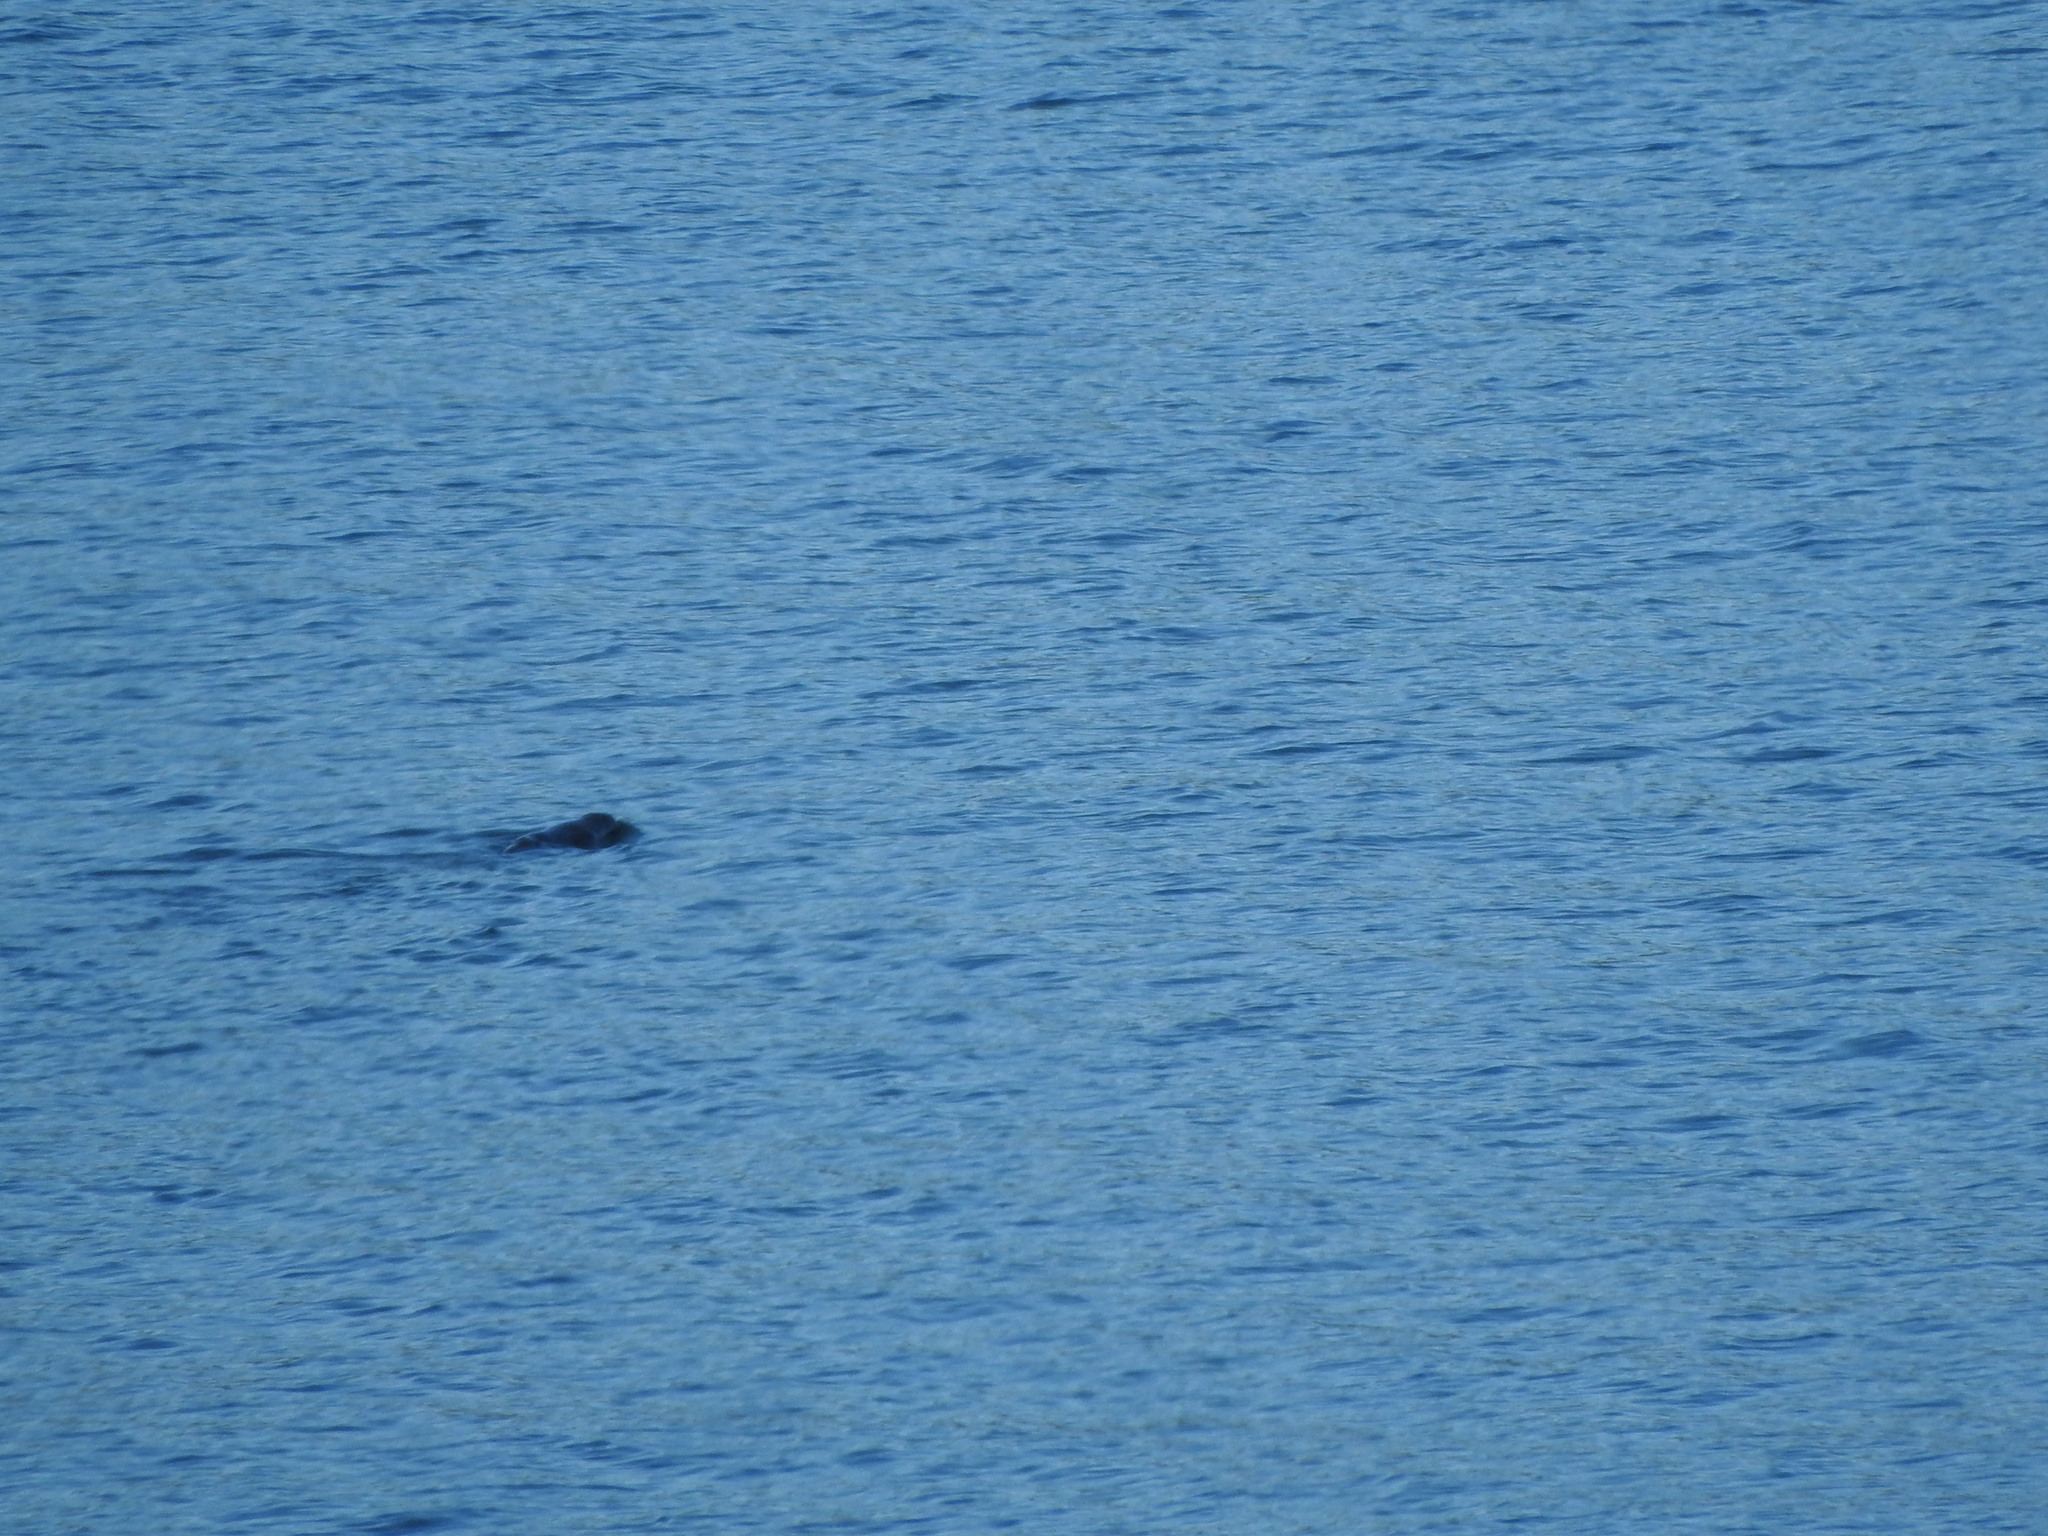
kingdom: Animalia
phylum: Chordata
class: Mammalia
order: Carnivora
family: Otariidae
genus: Arctocephalus
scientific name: Arctocephalus forsteri
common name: New zealand fur seal
